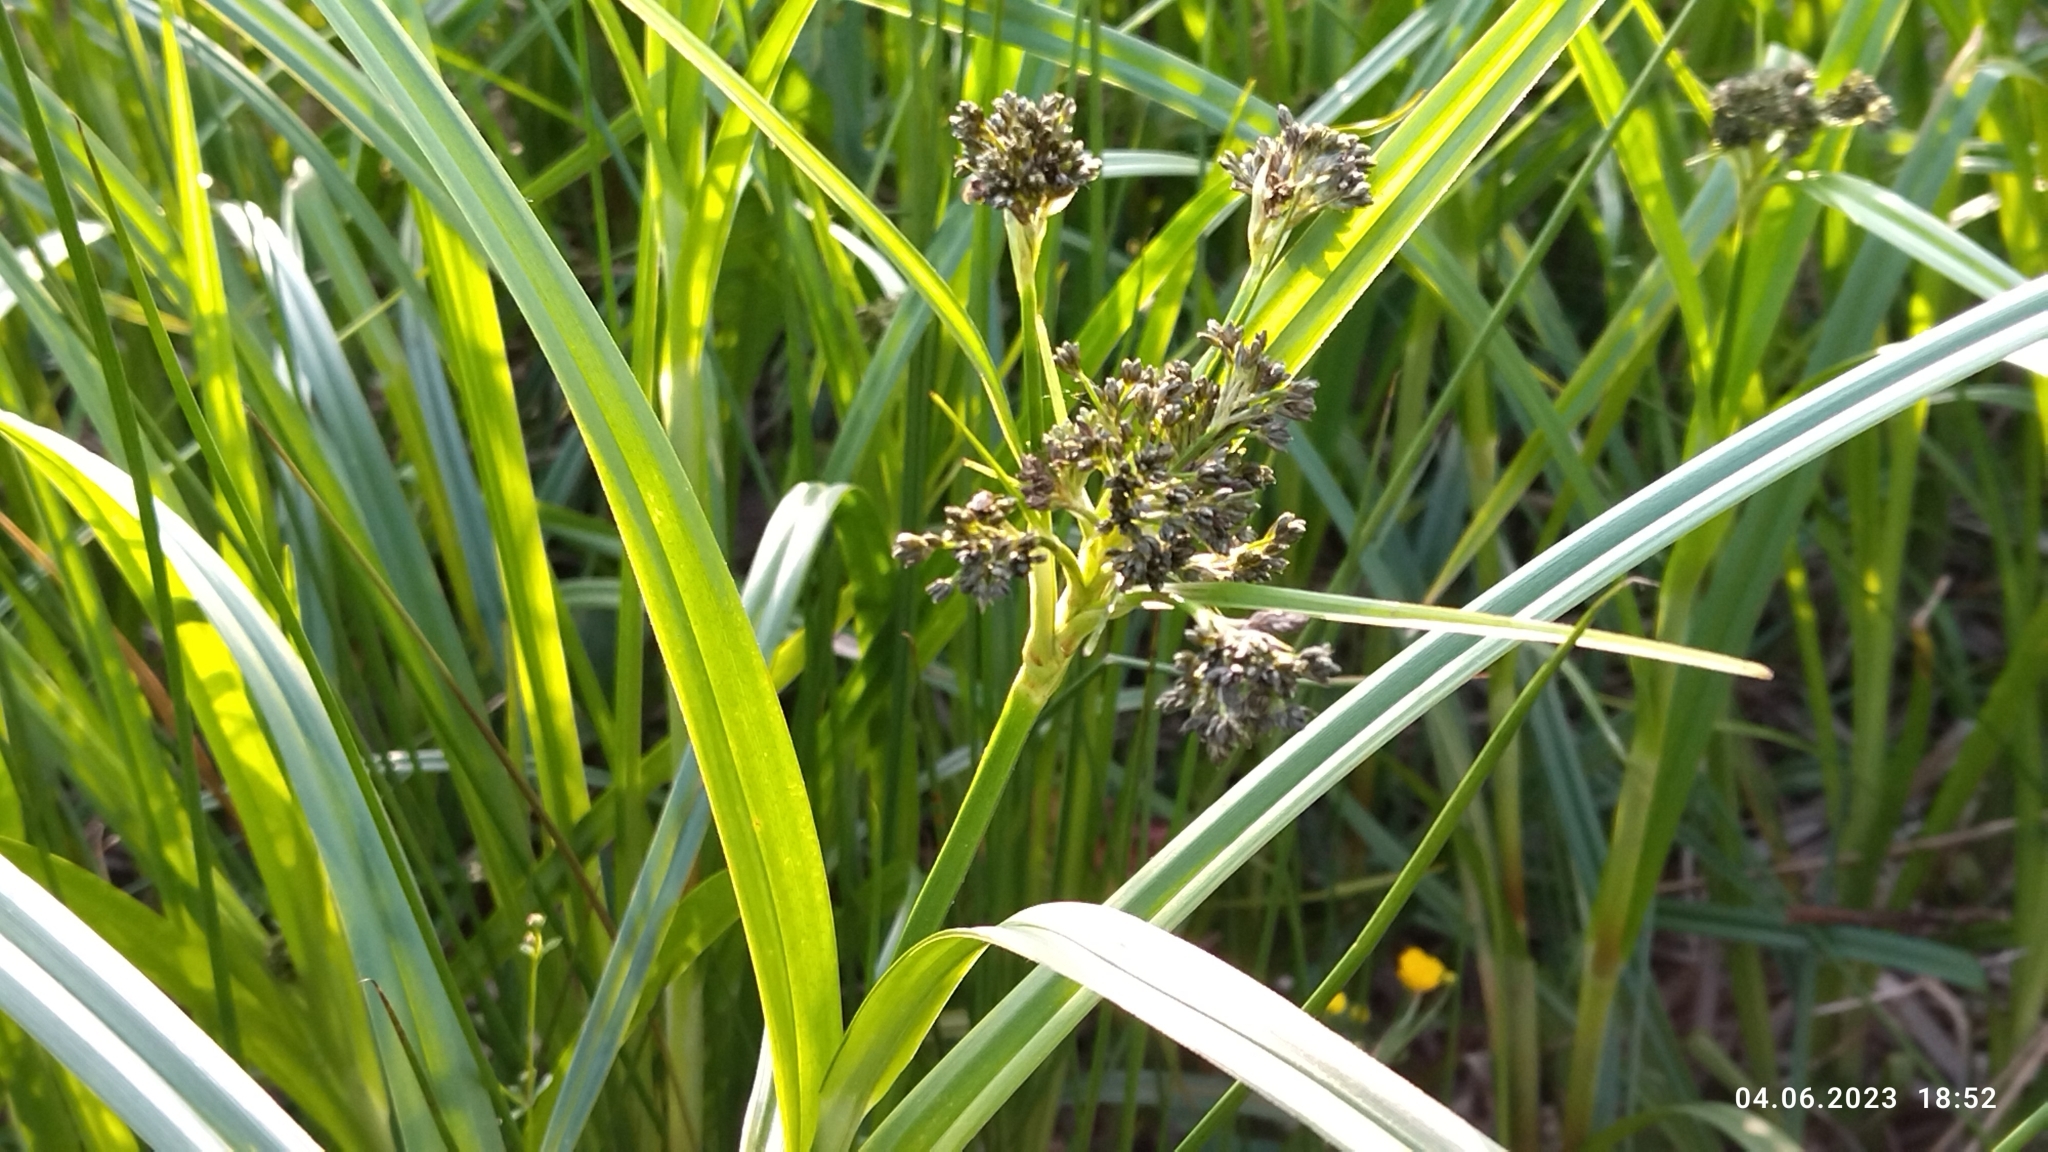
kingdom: Plantae
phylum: Tracheophyta
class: Liliopsida
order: Poales
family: Cyperaceae
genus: Scirpus
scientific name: Scirpus sylvaticus
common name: Wood club-rush
